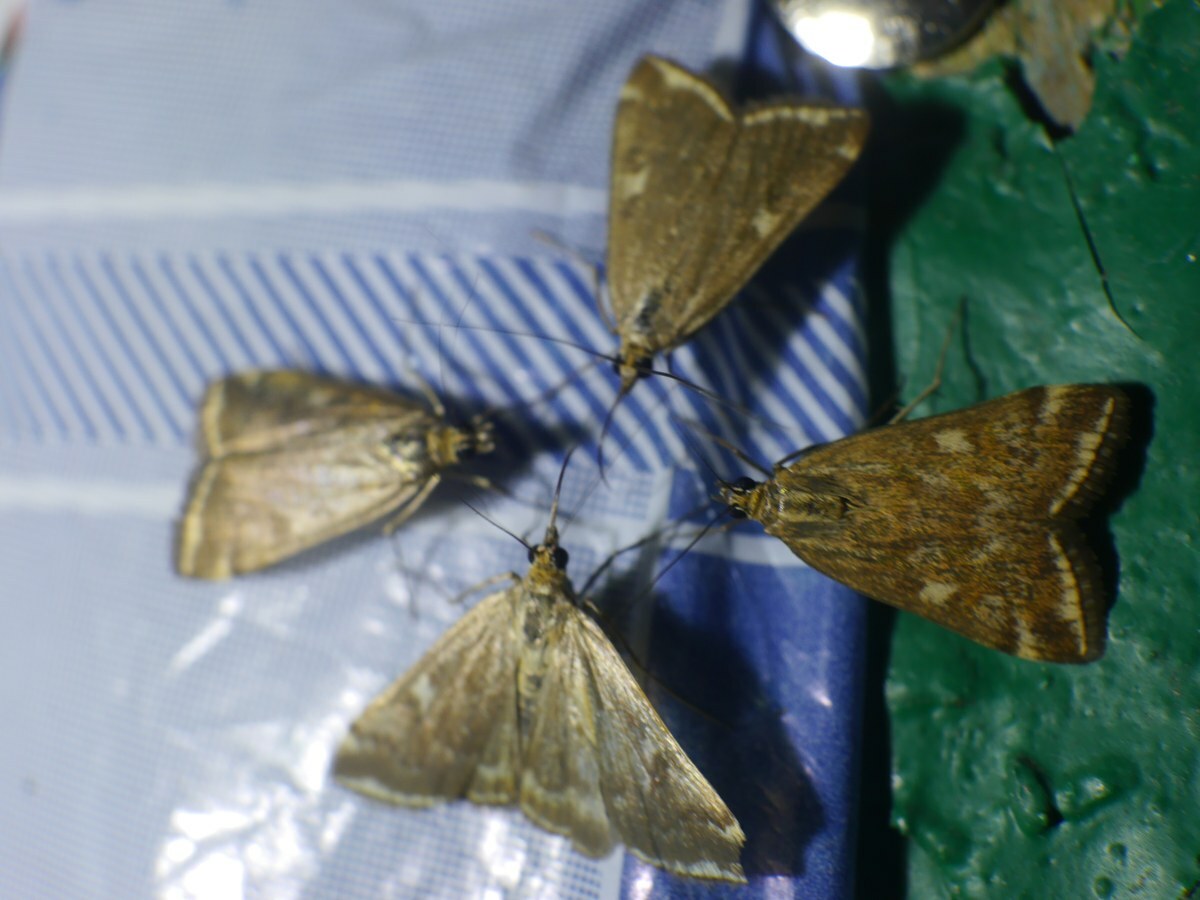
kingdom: Animalia
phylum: Arthropoda
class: Insecta
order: Lepidoptera
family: Crambidae
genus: Loxostege
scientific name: Loxostege sticticalis
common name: Crambid moth
